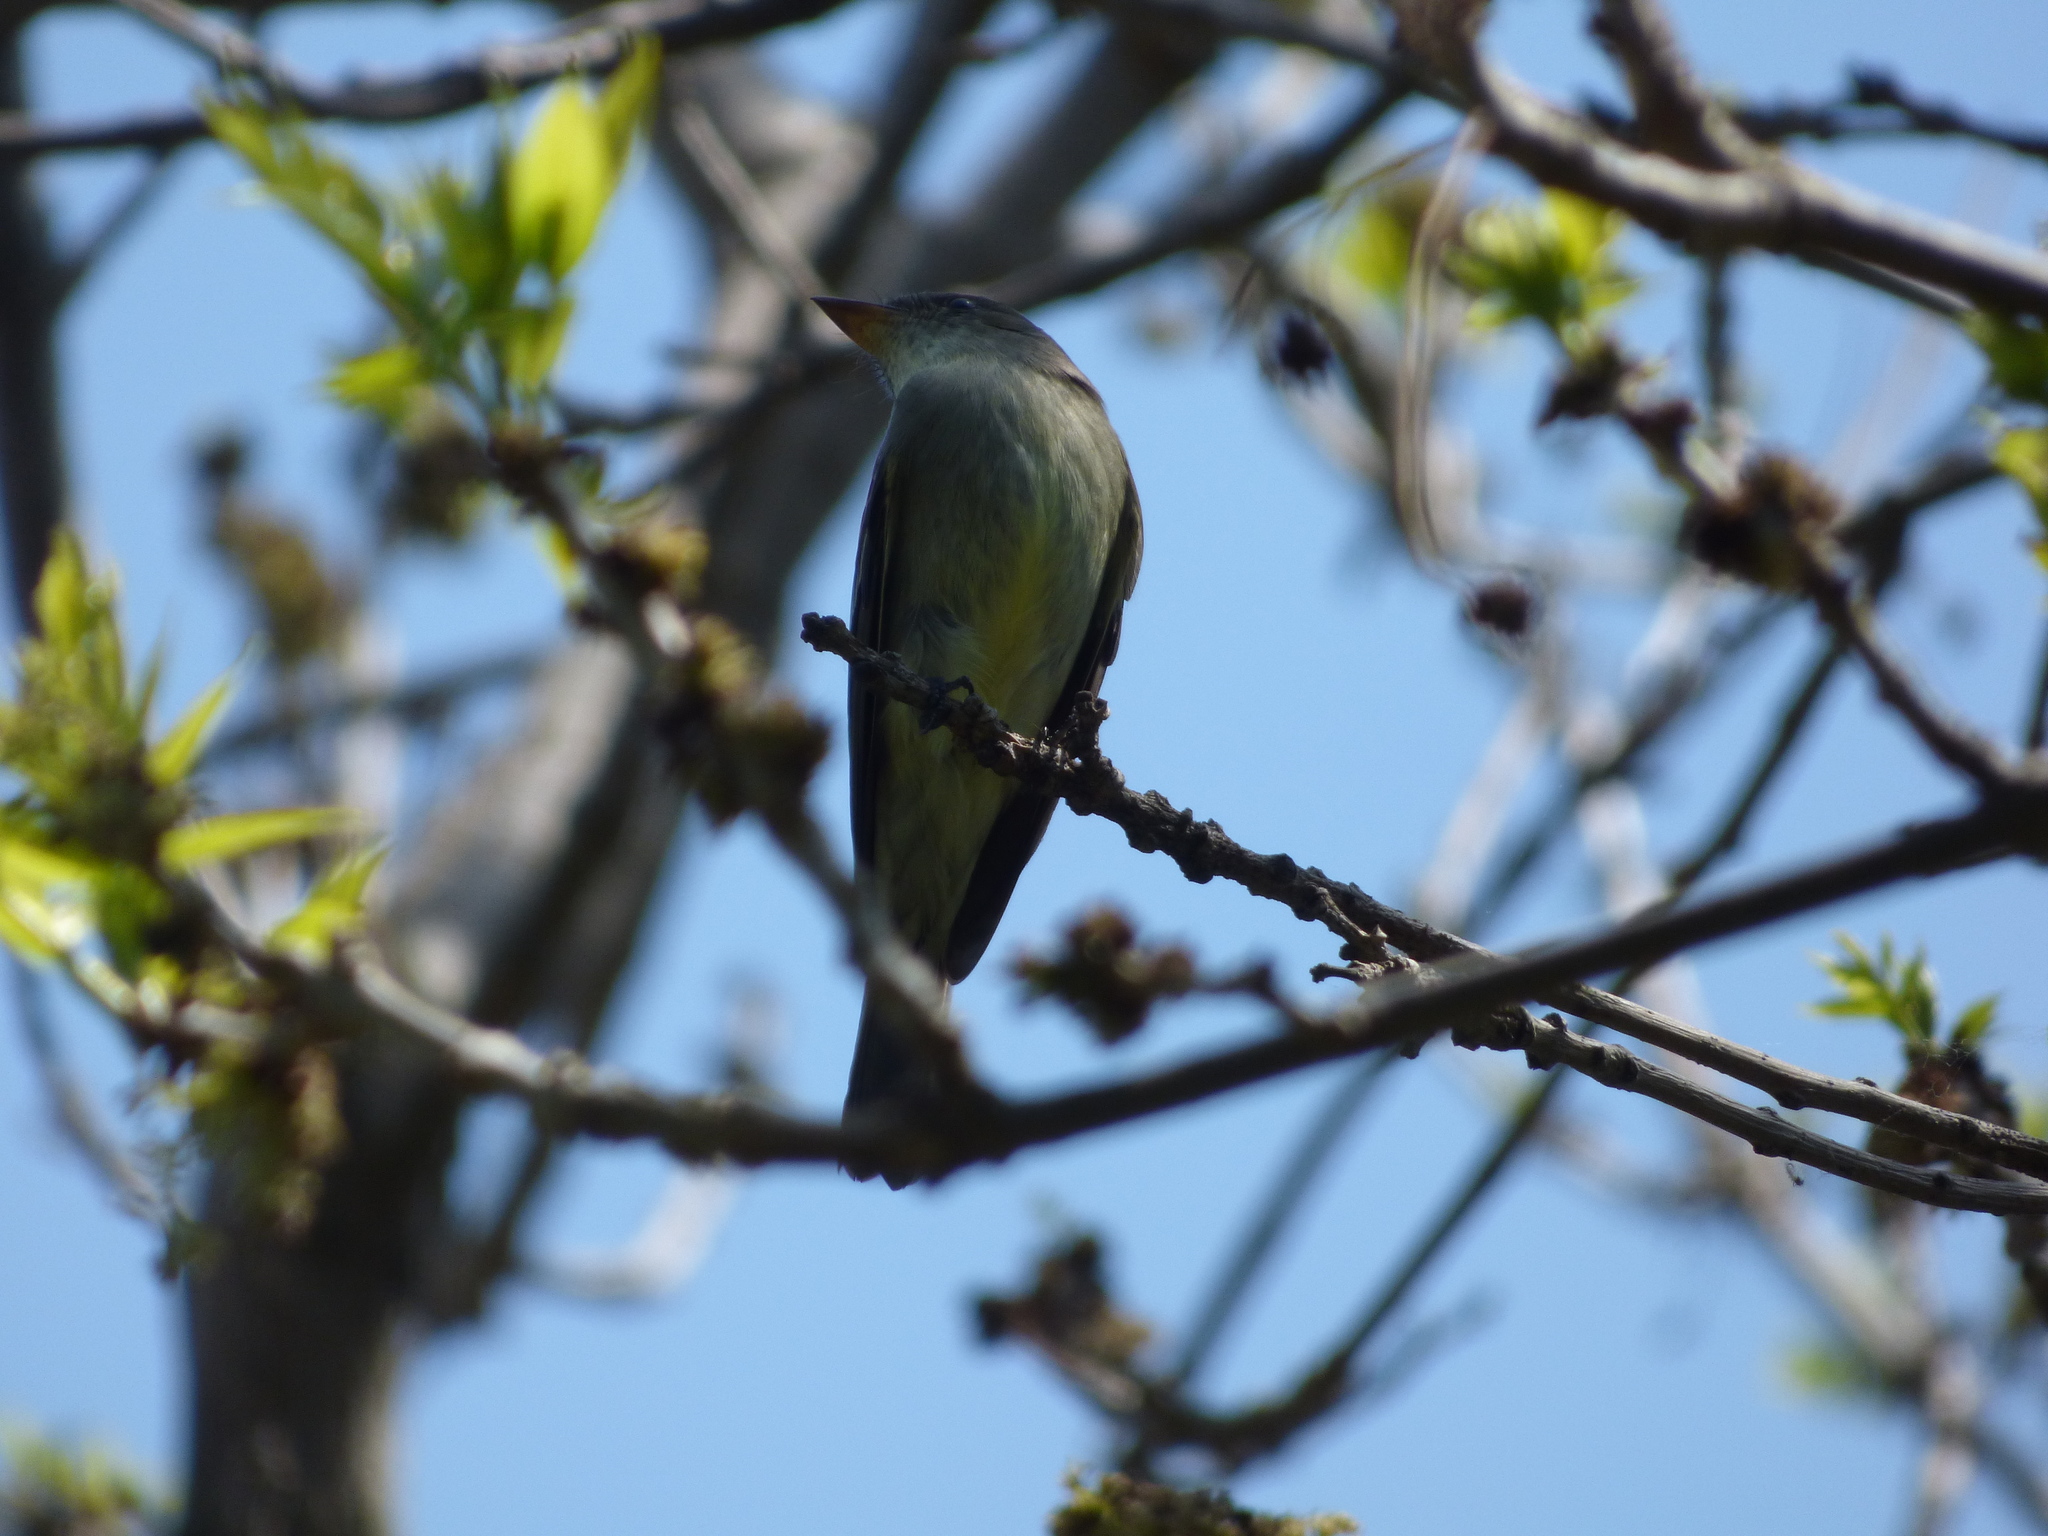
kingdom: Animalia
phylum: Chordata
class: Aves
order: Passeriformes
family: Tyrannidae
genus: Contopus
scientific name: Contopus virens
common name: Eastern wood-pewee
